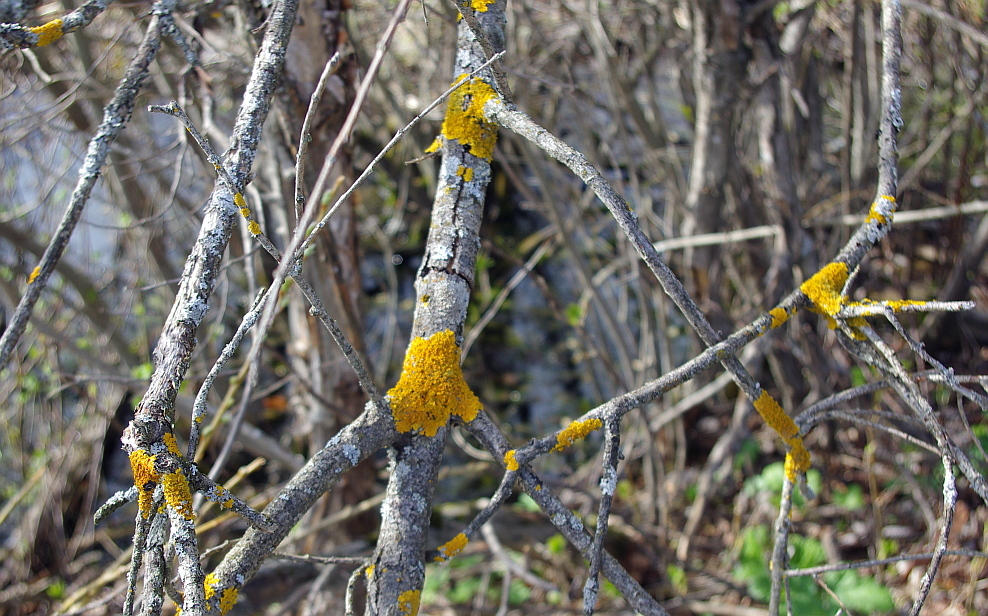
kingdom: Fungi
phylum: Ascomycota
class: Lecanoromycetes
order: Teloschistales
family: Teloschistaceae
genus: Xanthoria
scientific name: Xanthoria parietina
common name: Common orange lichen
